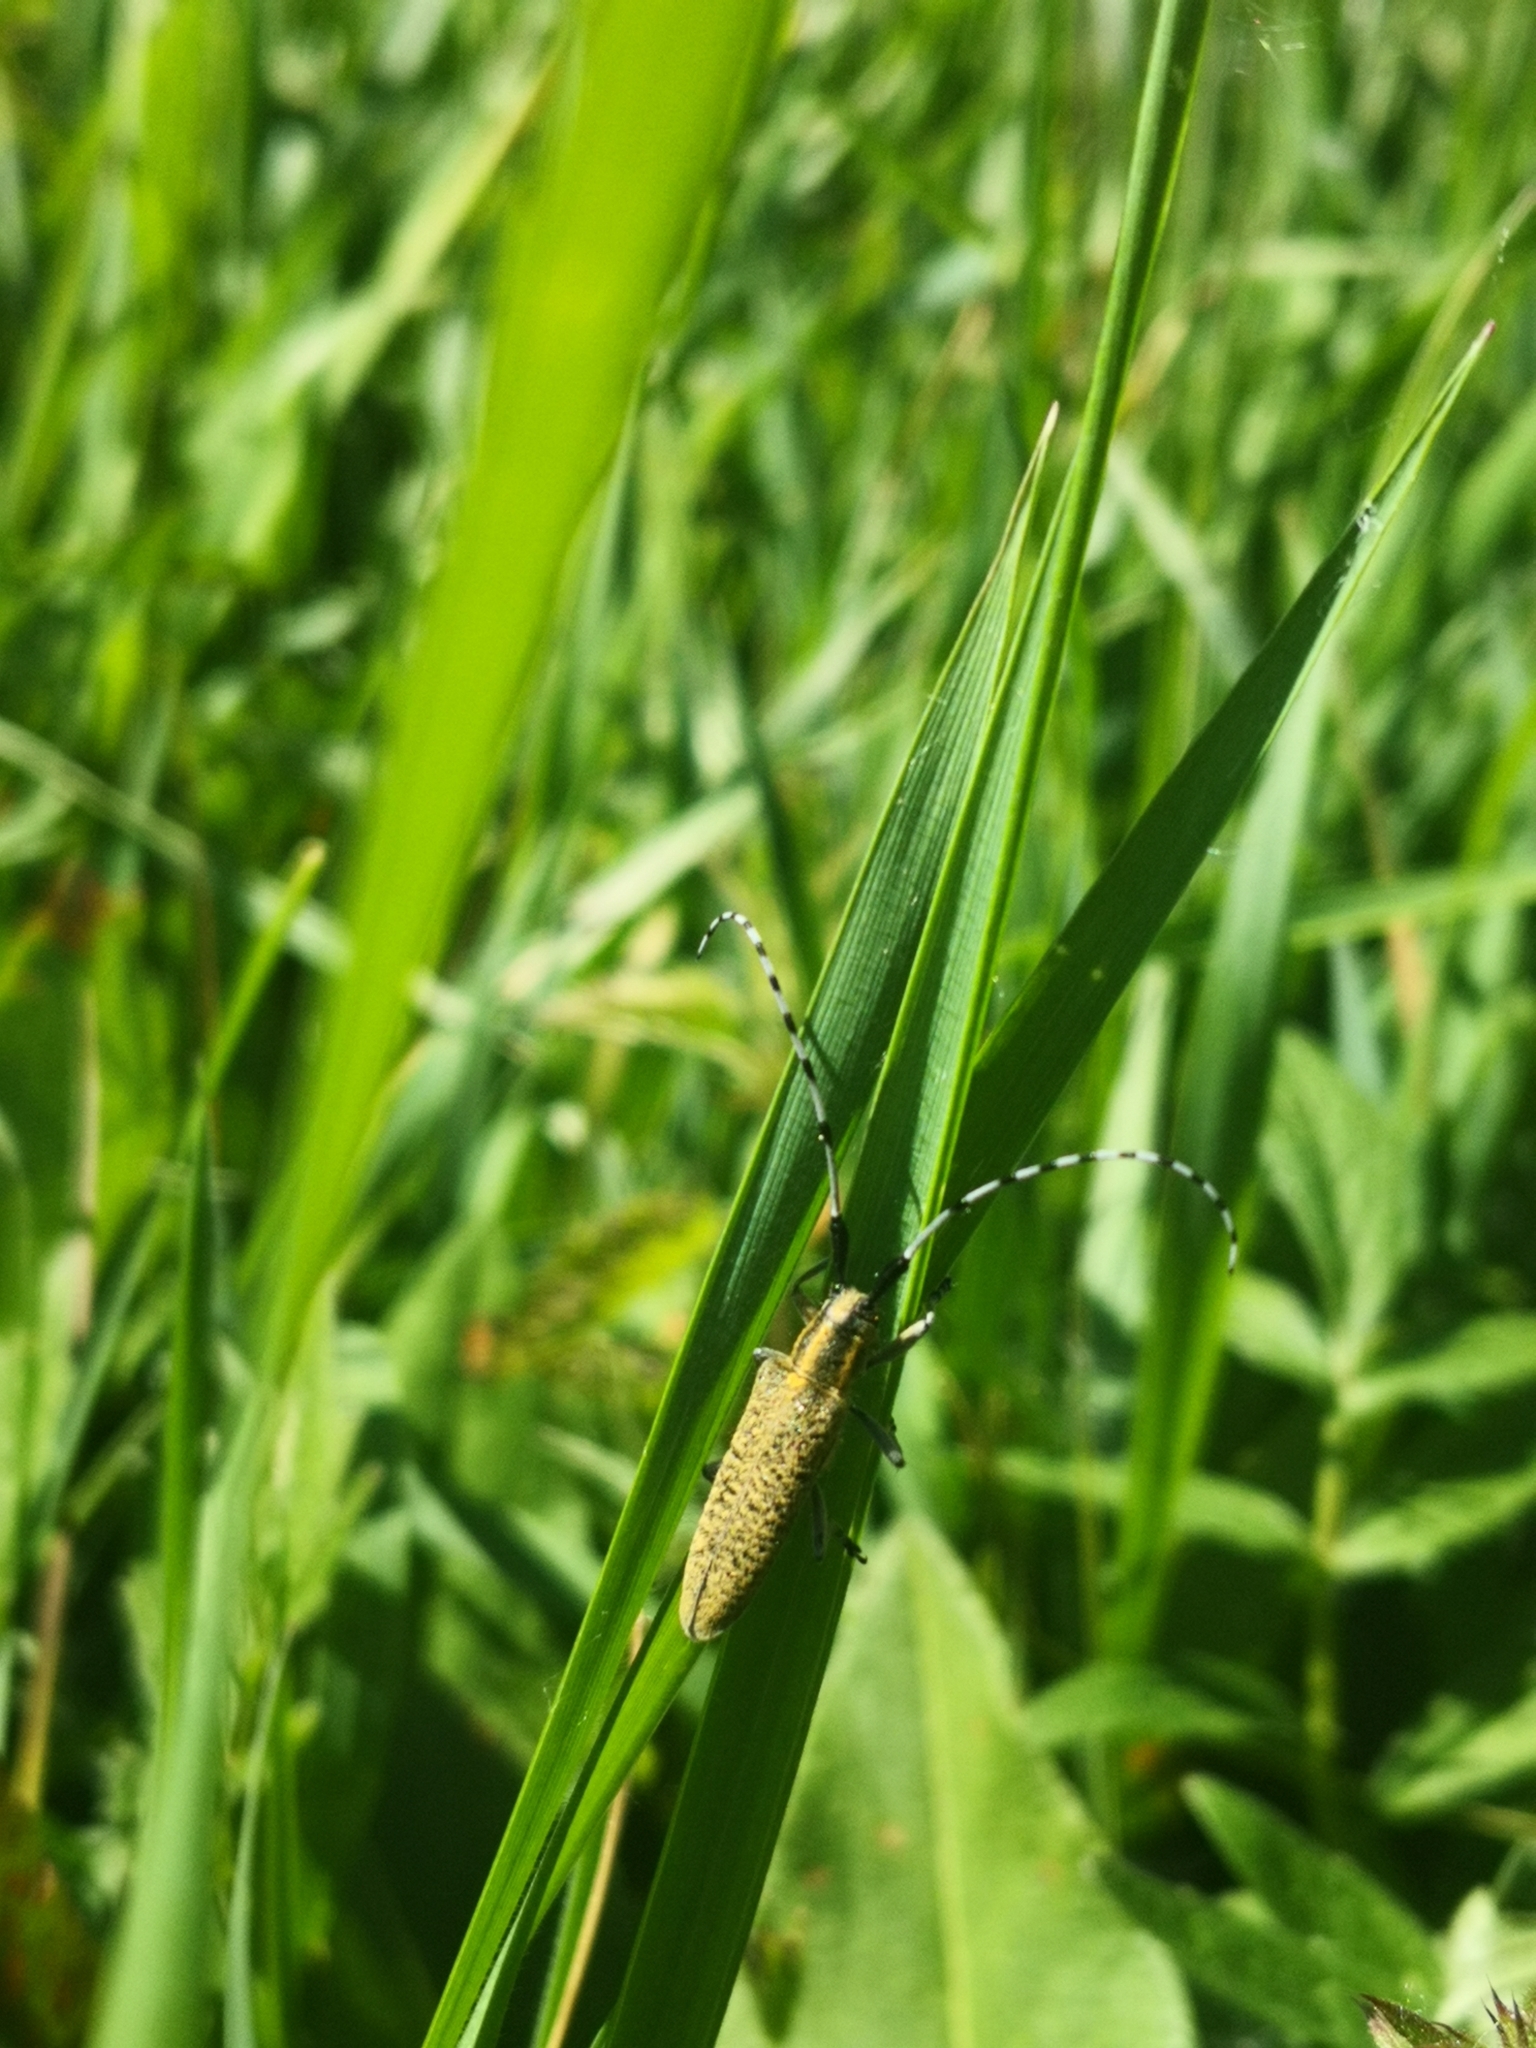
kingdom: Animalia
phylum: Arthropoda
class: Insecta
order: Coleoptera
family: Cerambycidae
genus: Agapanthia
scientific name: Agapanthia villosoviridescens
